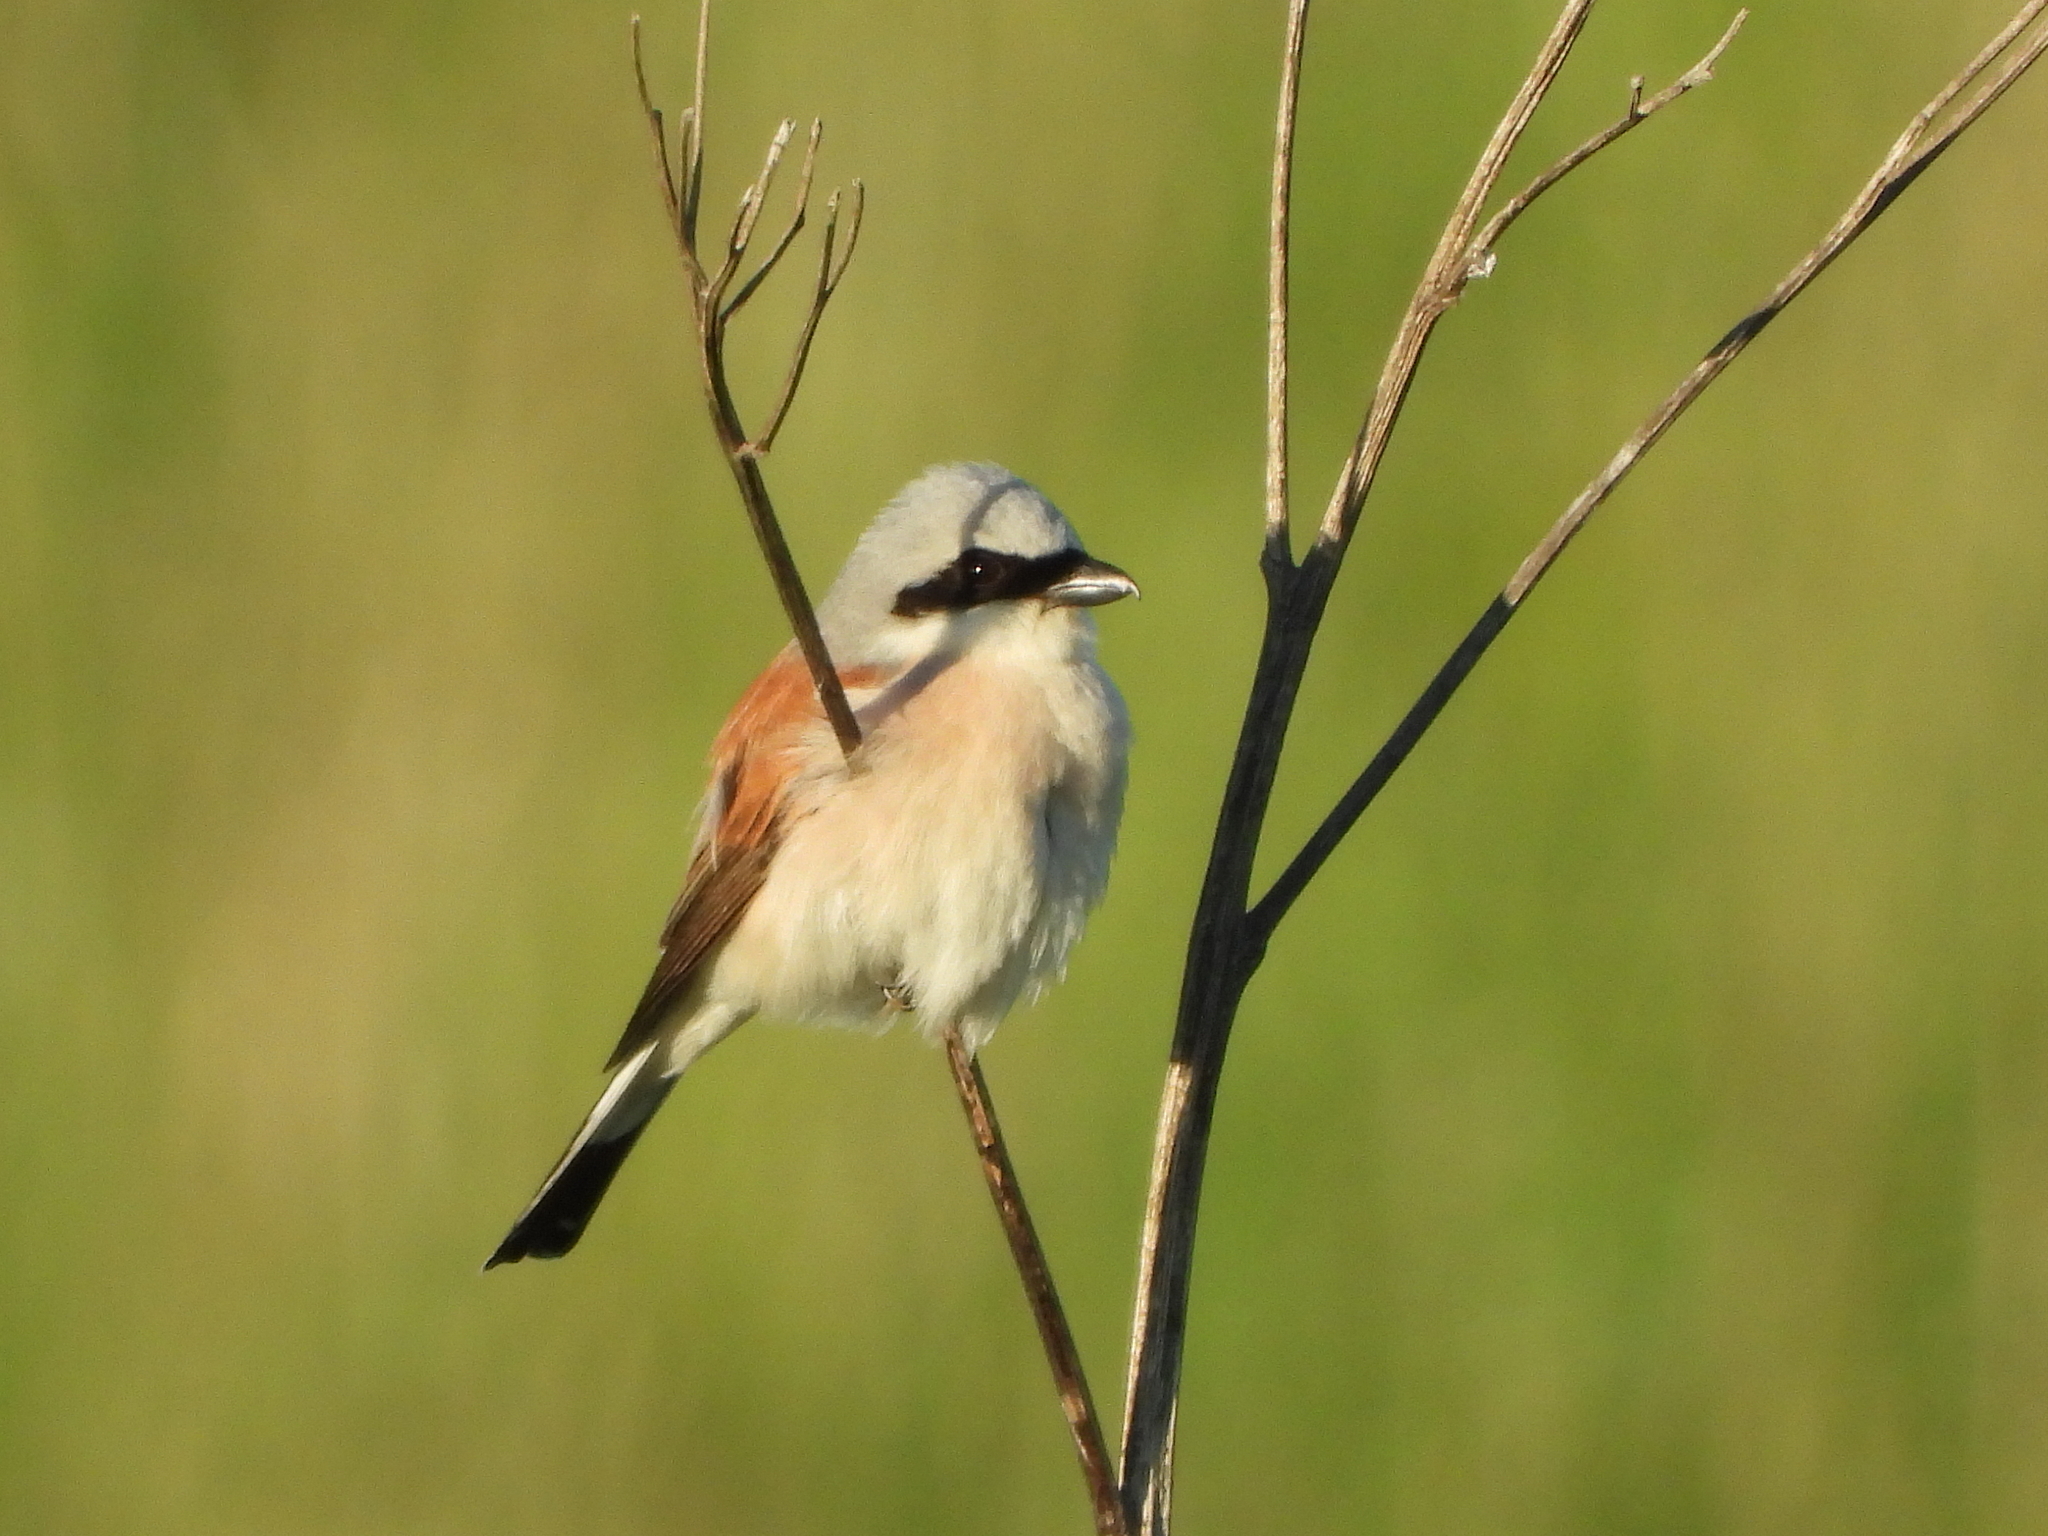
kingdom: Animalia
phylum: Chordata
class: Aves
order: Passeriformes
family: Laniidae
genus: Lanius
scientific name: Lanius collurio
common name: Red-backed shrike
